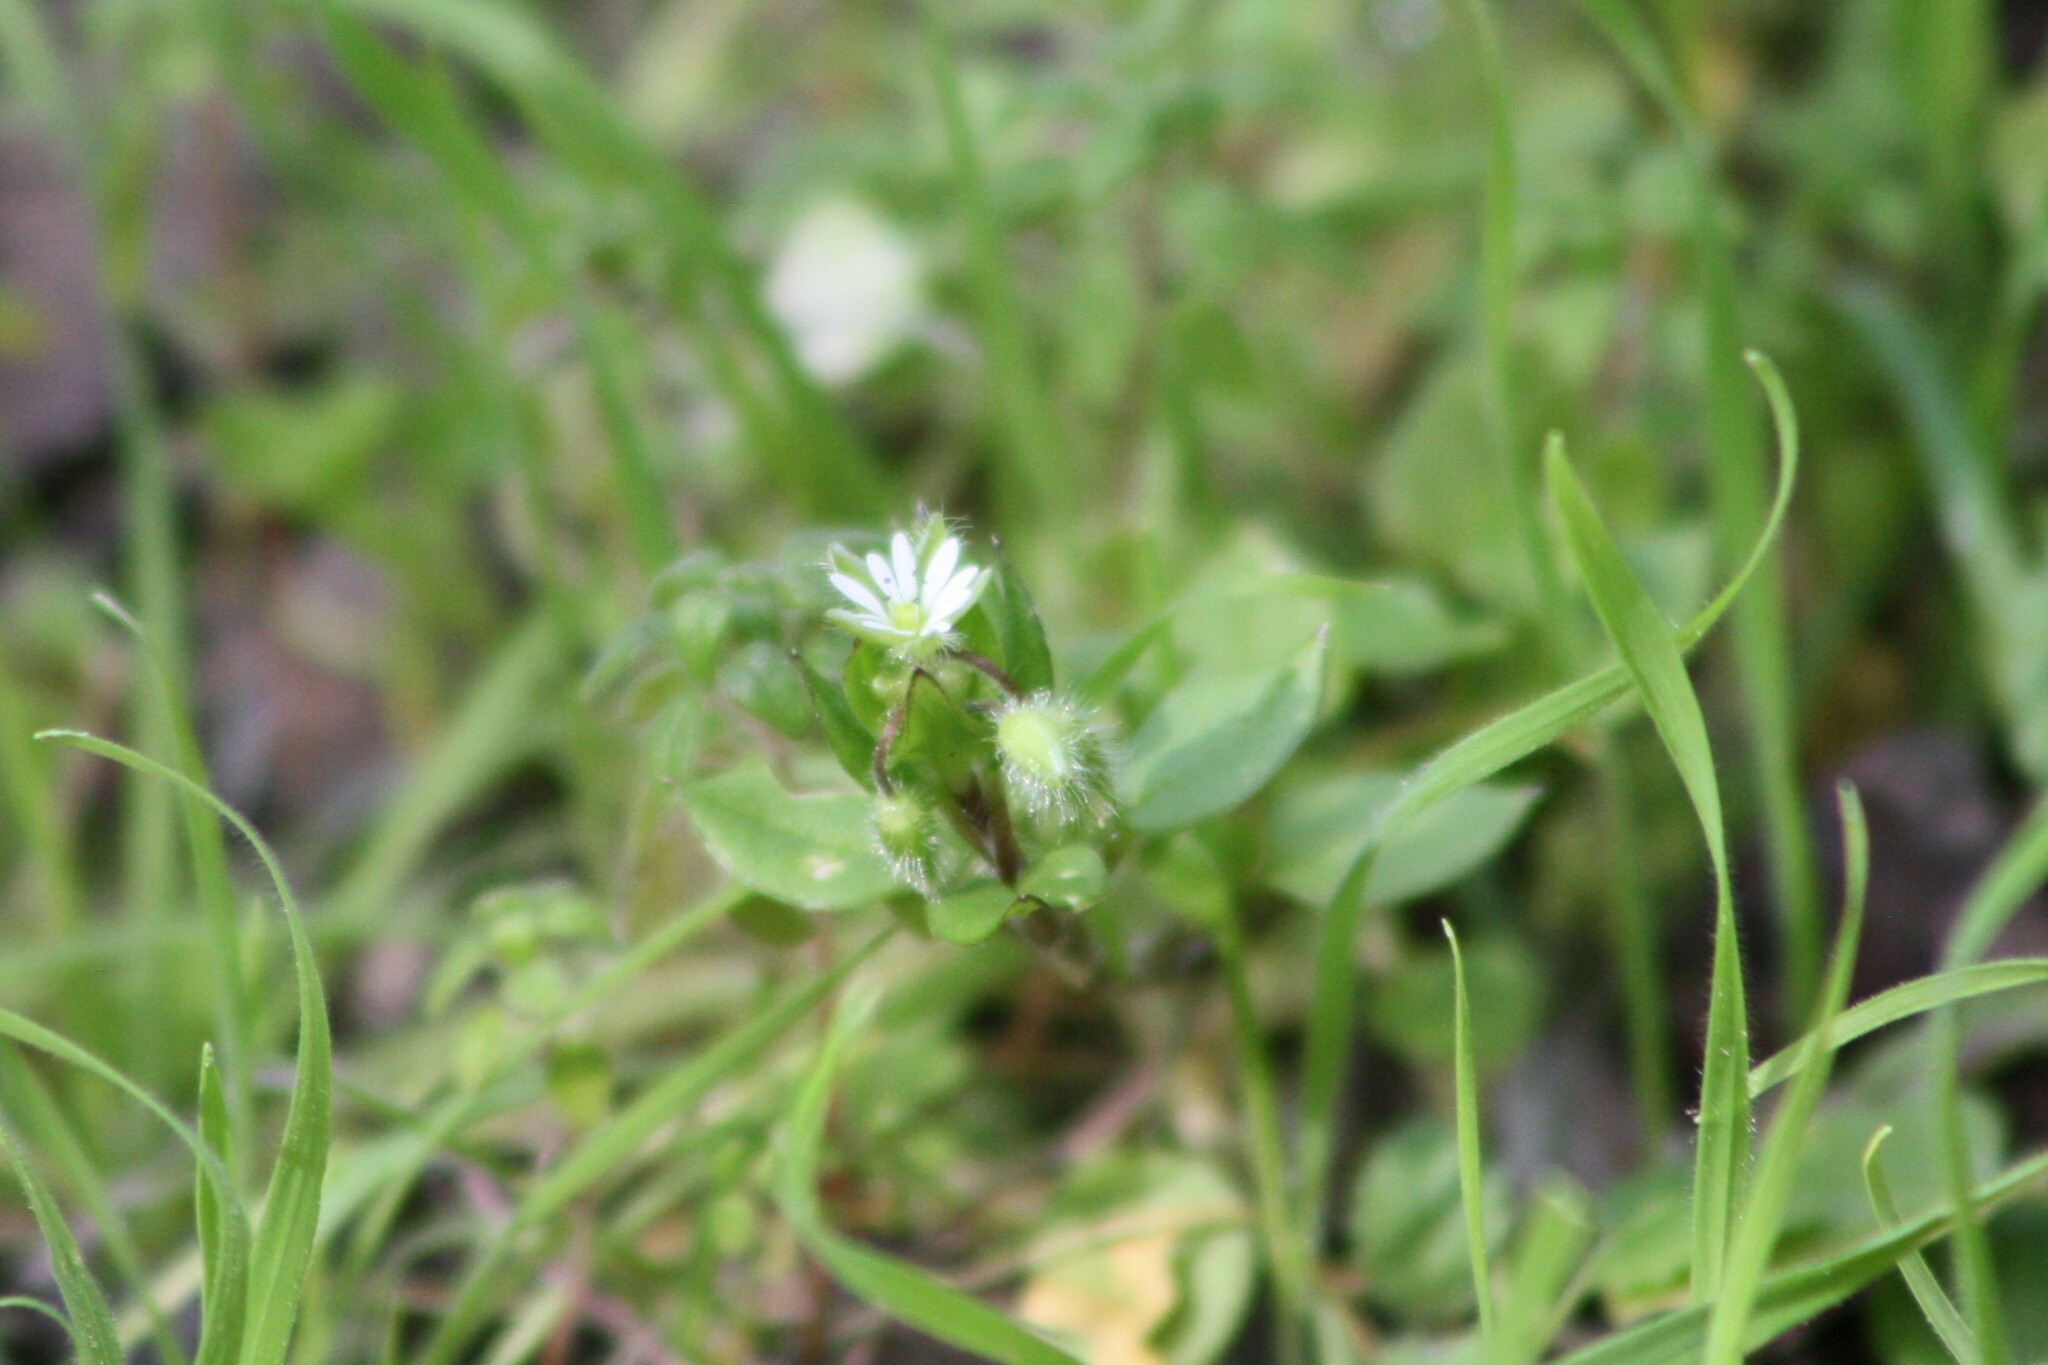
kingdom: Plantae
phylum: Tracheophyta
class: Magnoliopsida
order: Caryophyllales
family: Caryophyllaceae
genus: Stellaria
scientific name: Stellaria media
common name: Common chickweed
